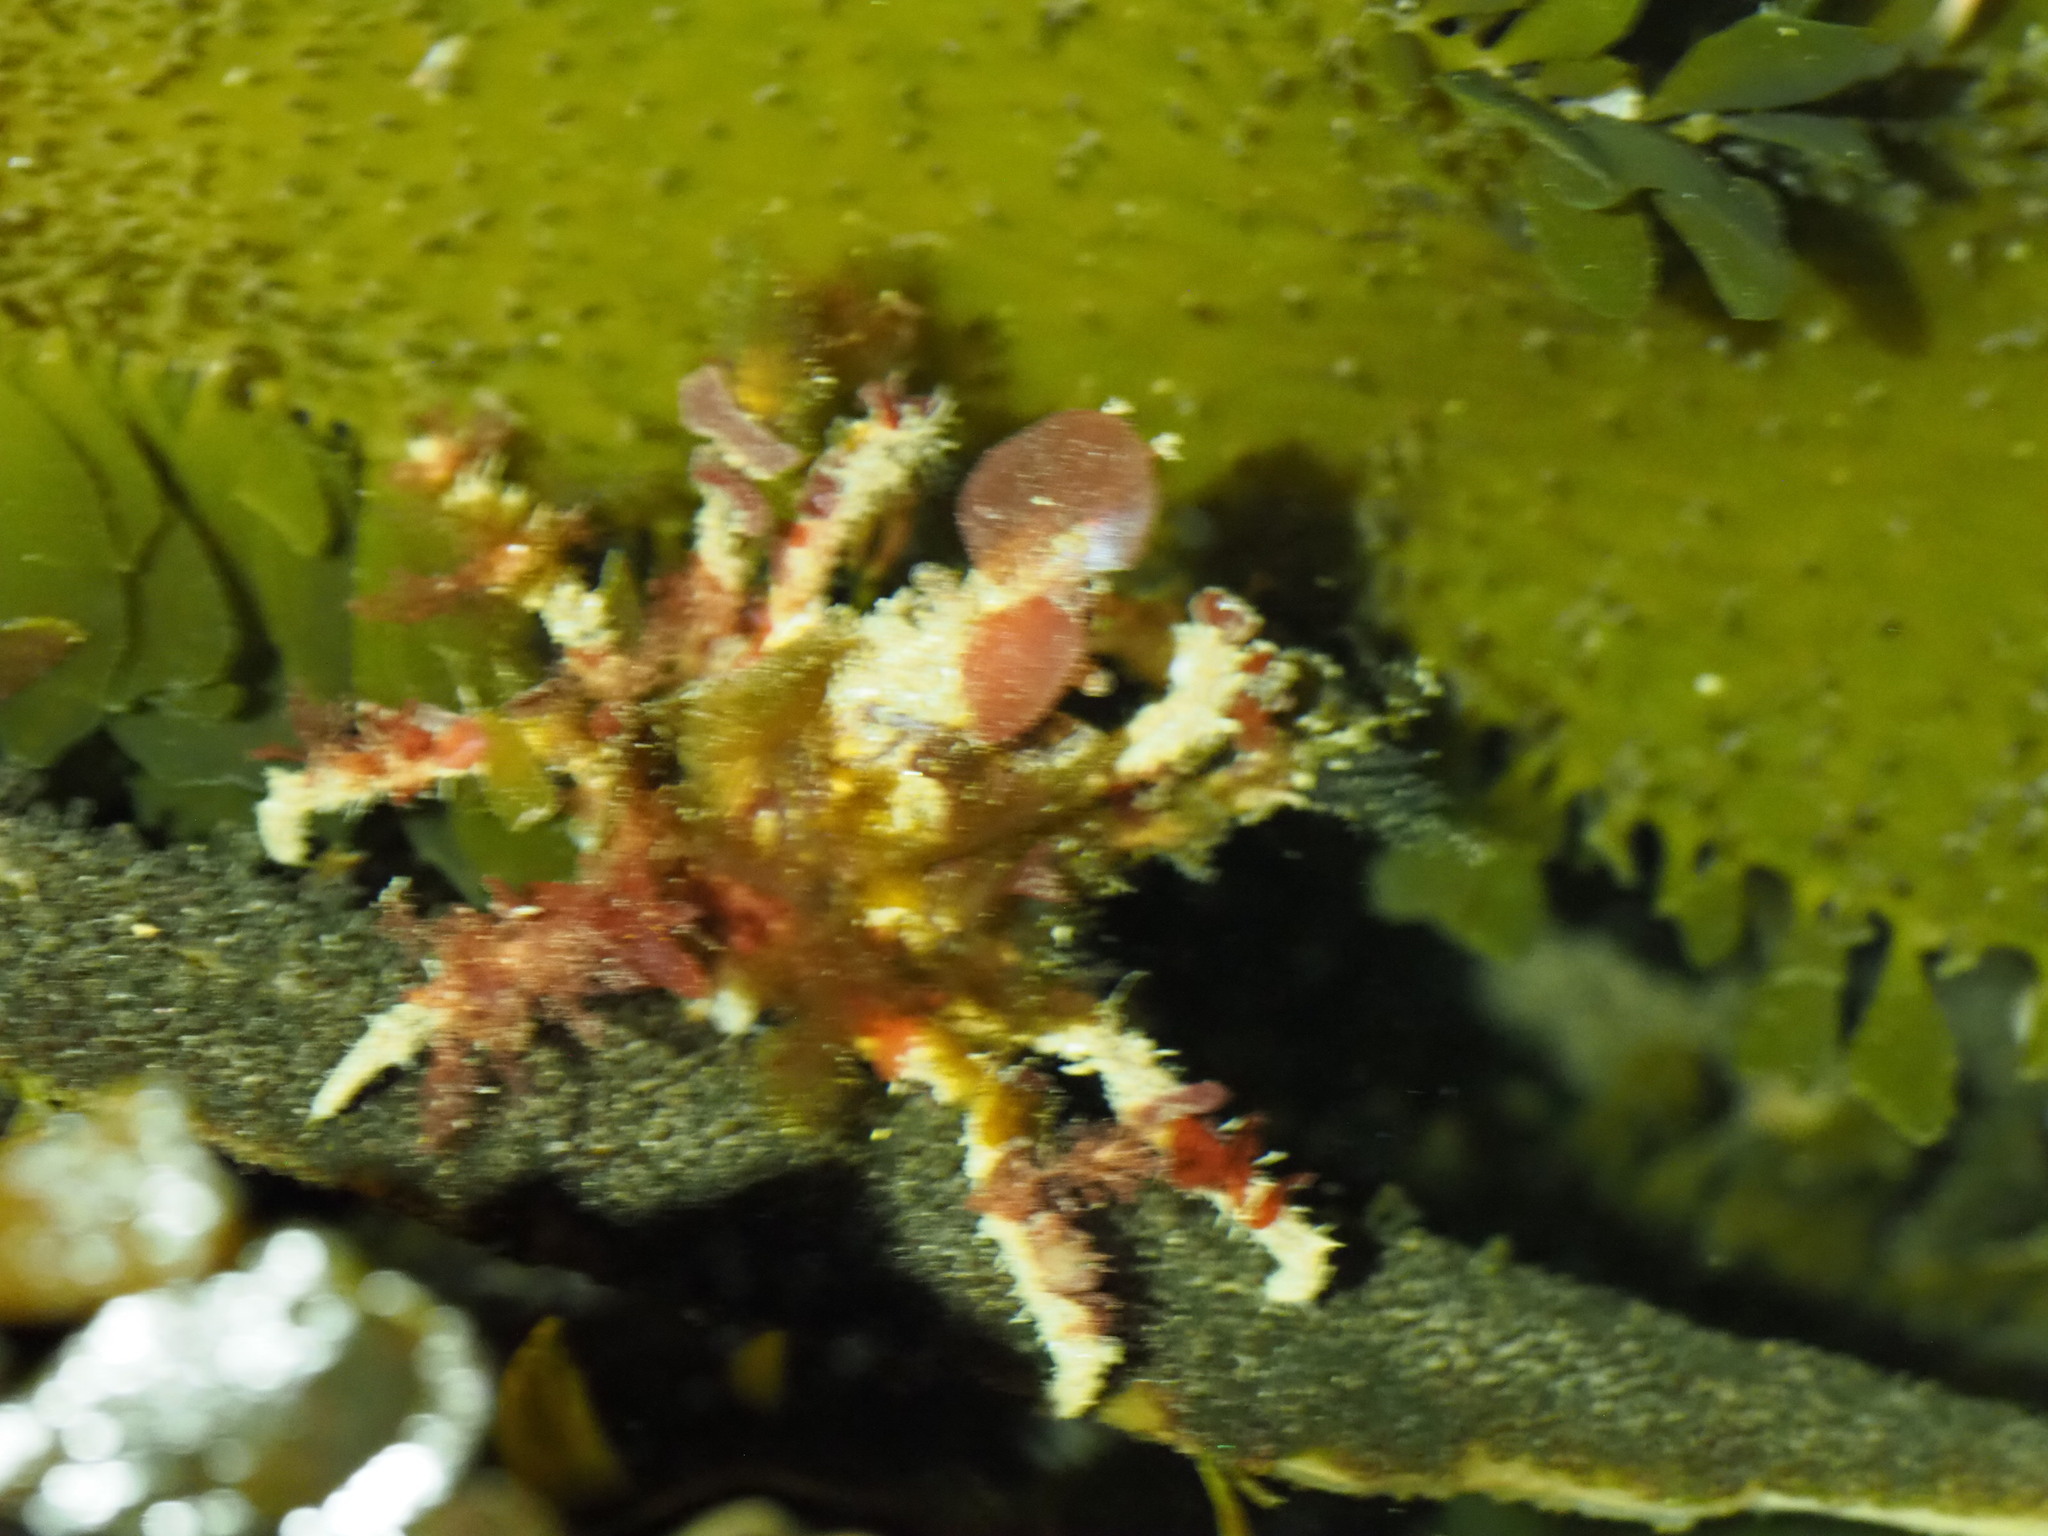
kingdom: Animalia
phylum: Arthropoda
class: Malacostraca
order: Decapoda
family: Oregoniidae
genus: Oregonia
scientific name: Oregonia gracilis
